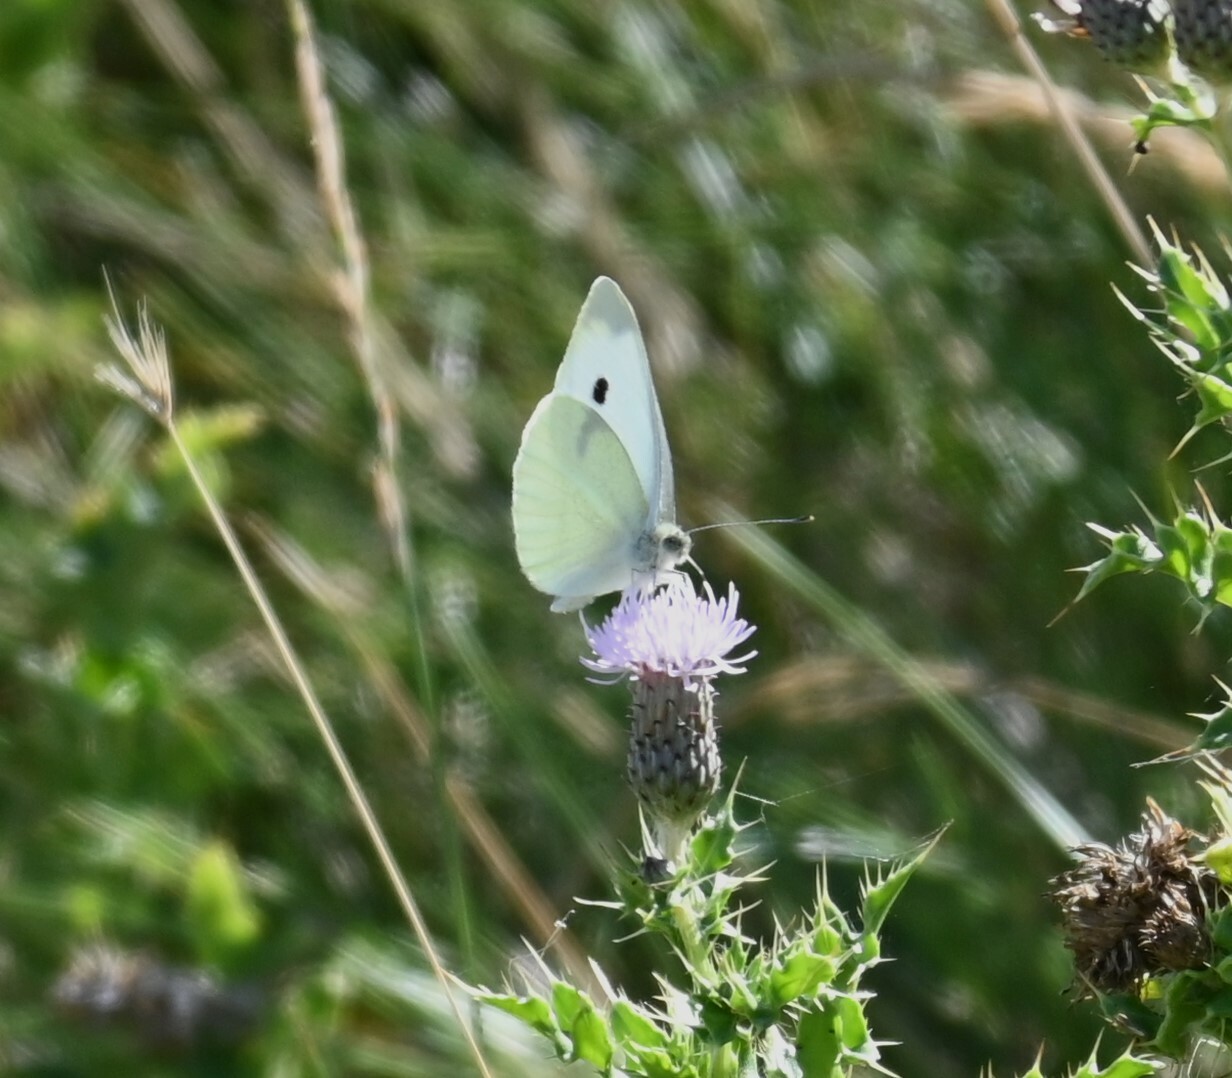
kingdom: Animalia
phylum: Arthropoda
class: Insecta
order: Lepidoptera
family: Pieridae
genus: Pieris
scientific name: Pieris rapae
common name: Small white
